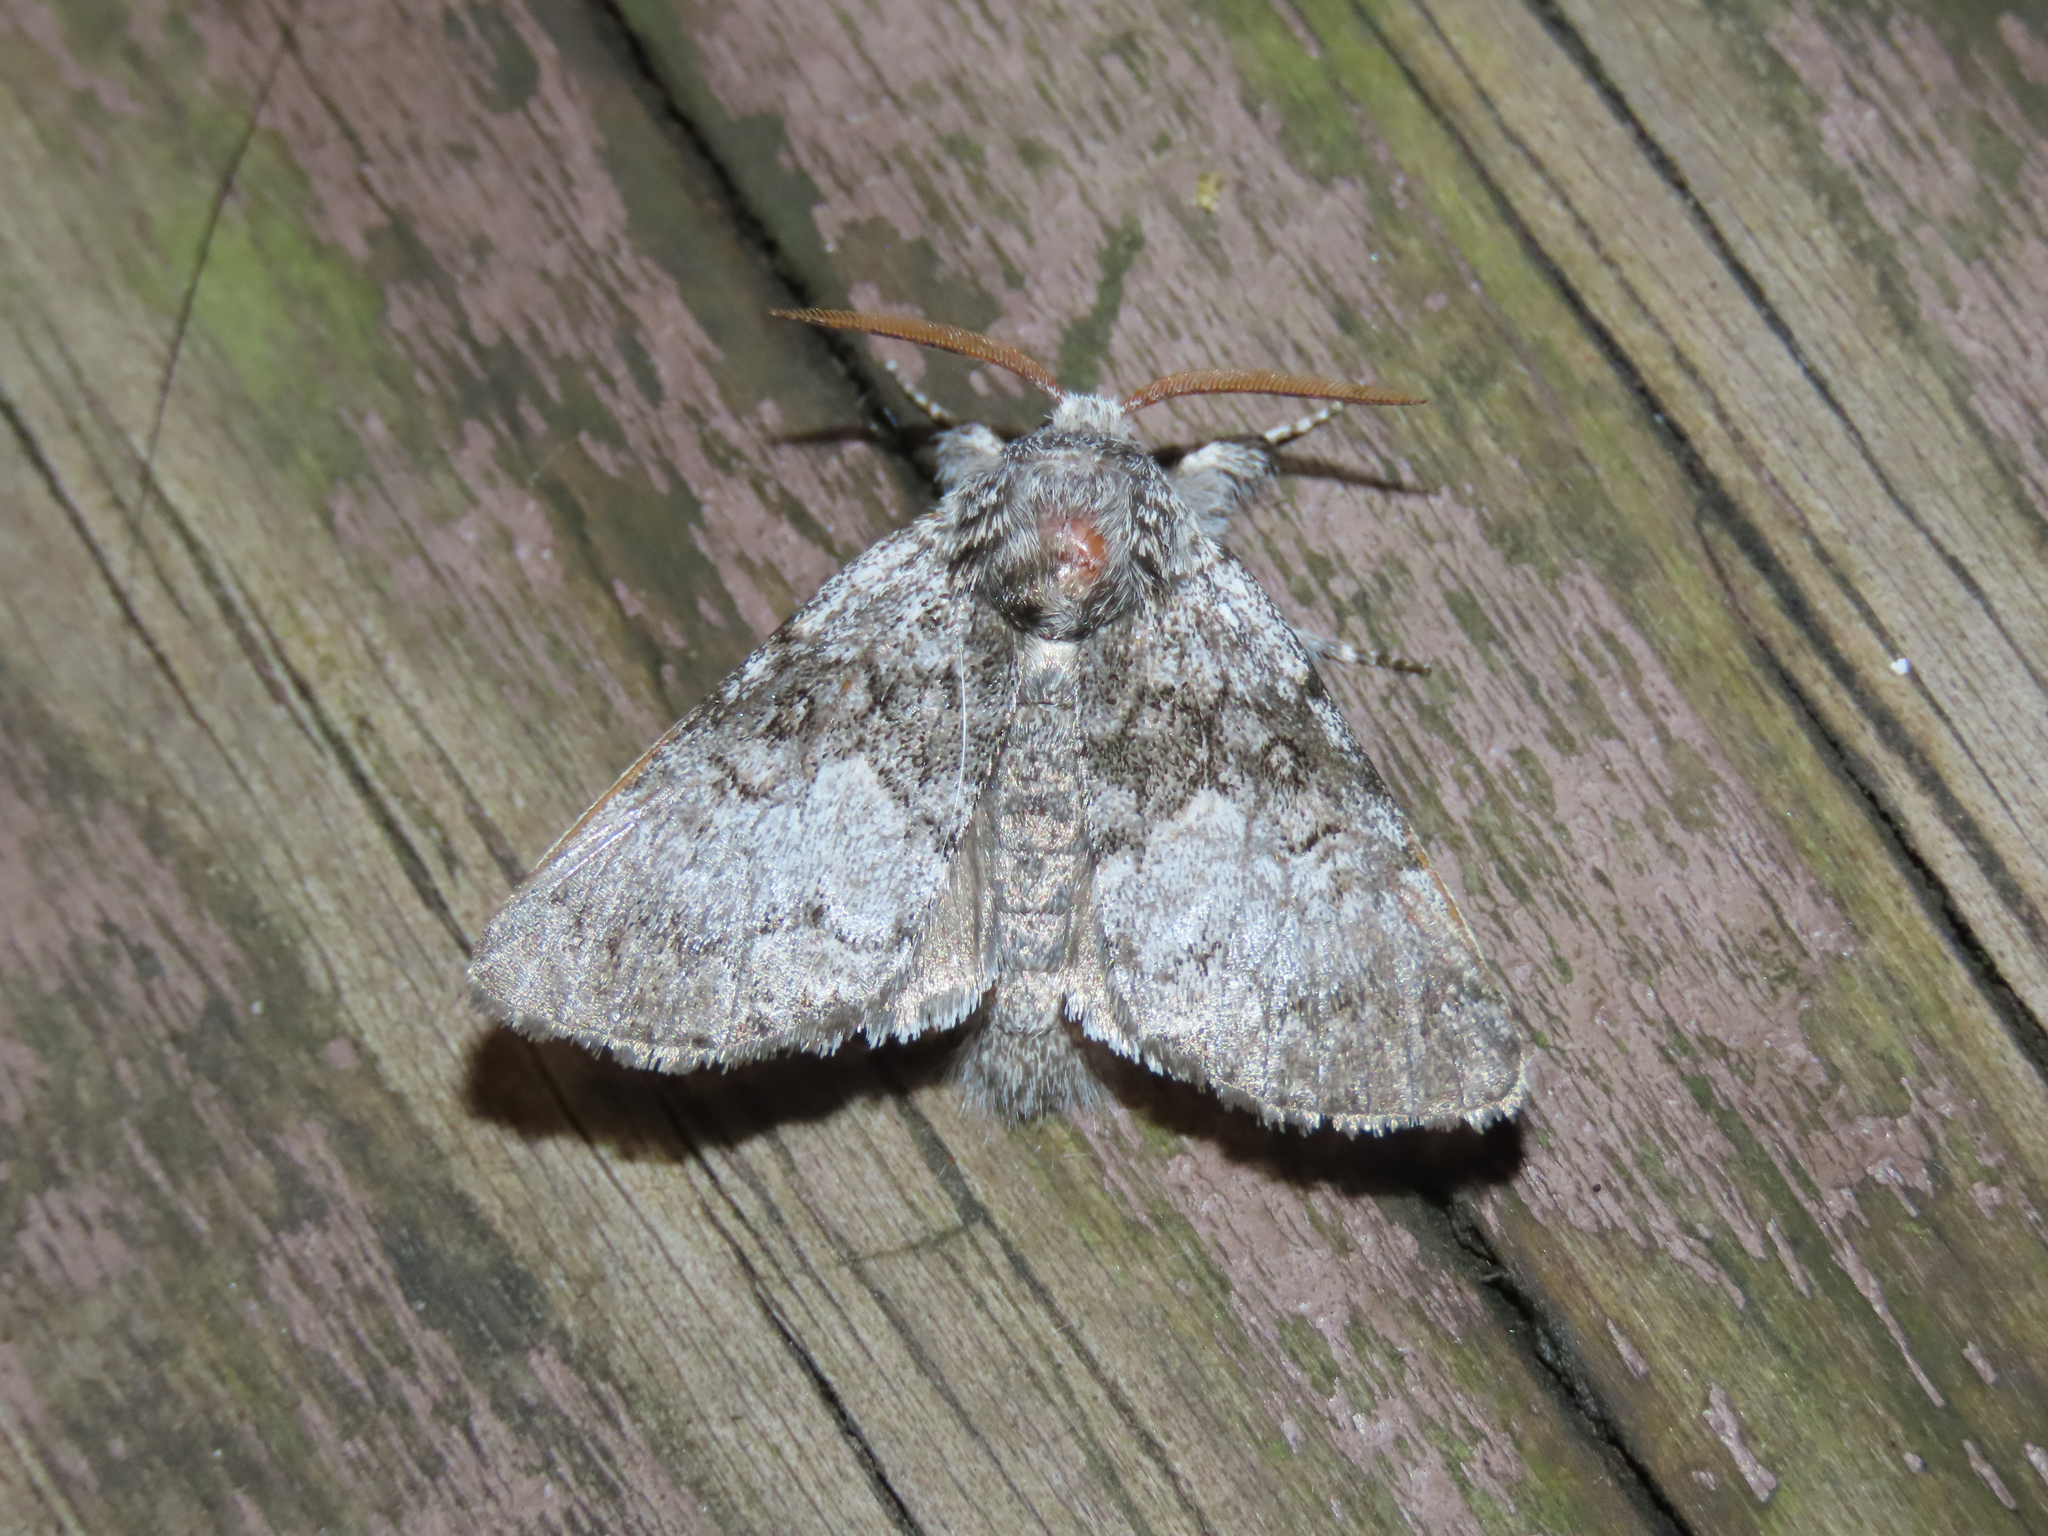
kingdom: Animalia
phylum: Arthropoda
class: Insecta
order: Lepidoptera
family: Noctuidae
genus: Colocasia
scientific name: Colocasia propinquilinea
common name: Close-banded demas
